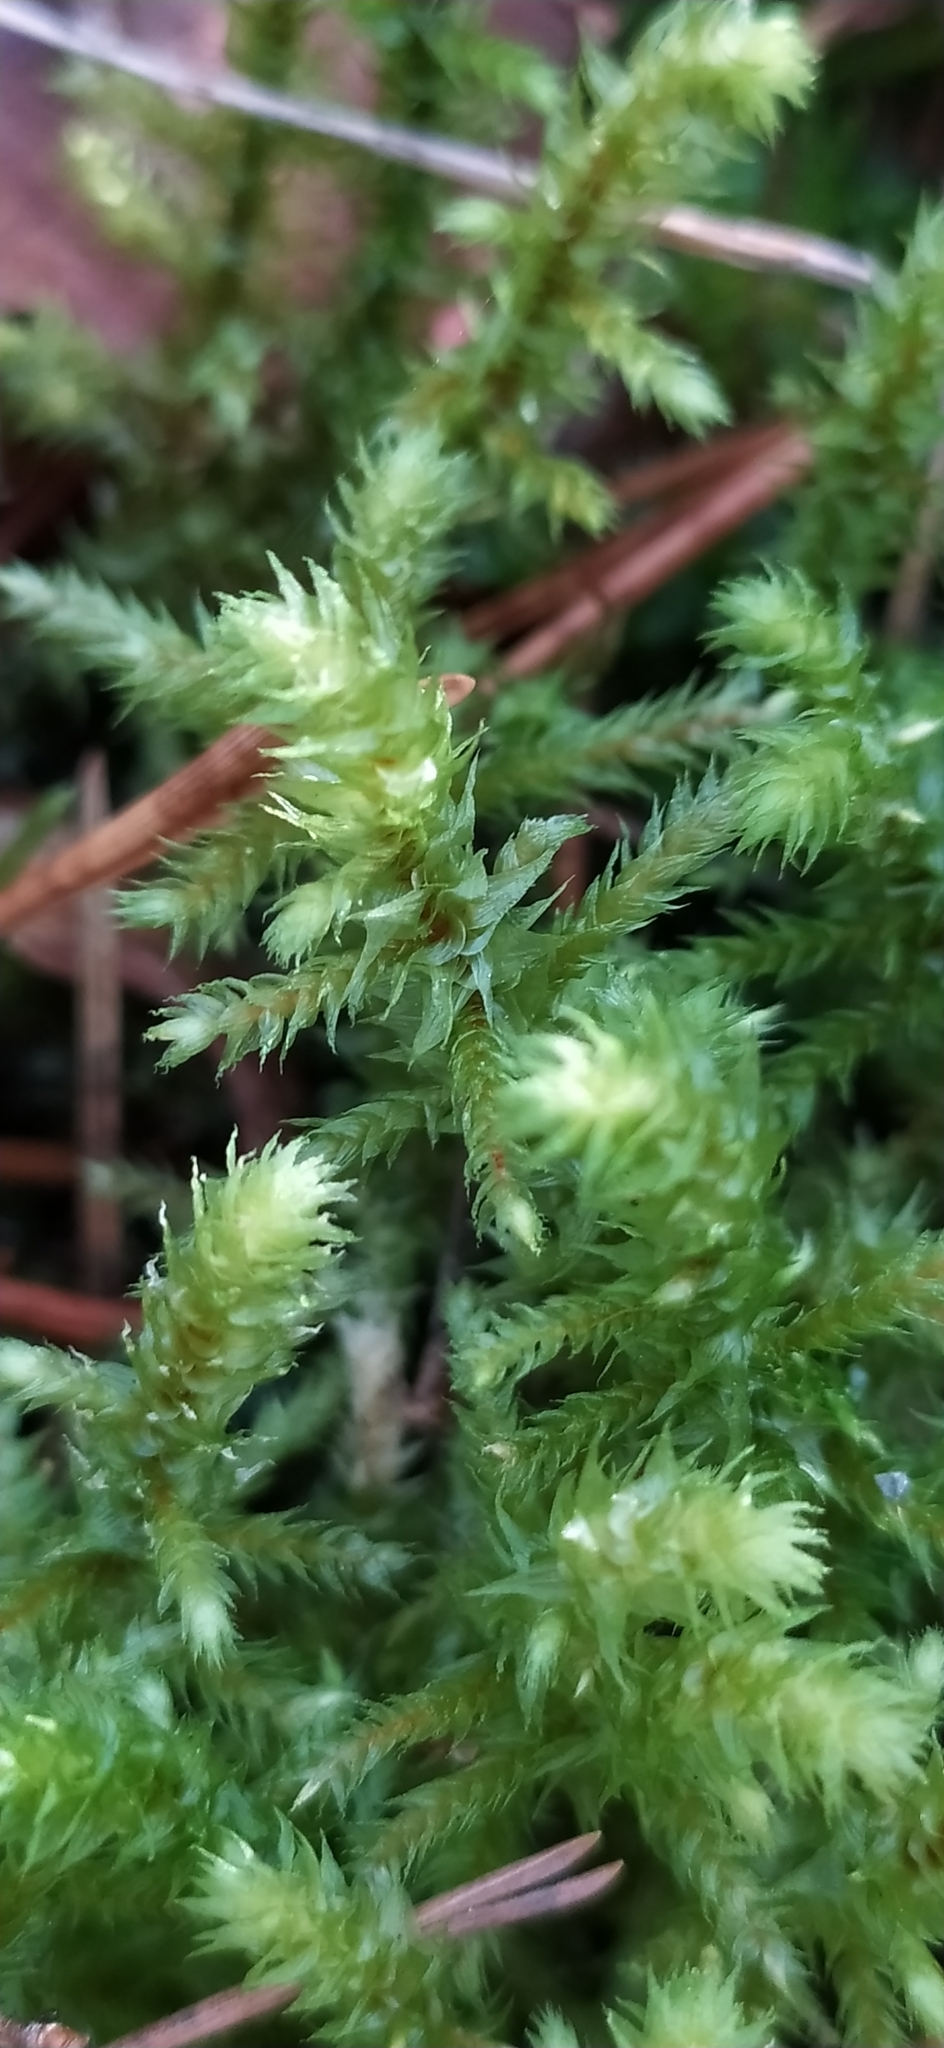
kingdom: Plantae
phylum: Bryophyta
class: Bryopsida
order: Hypnales
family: Hylocomiaceae
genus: Hylocomiadelphus
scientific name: Hylocomiadelphus triquetrus
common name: Rough goose neck moss
